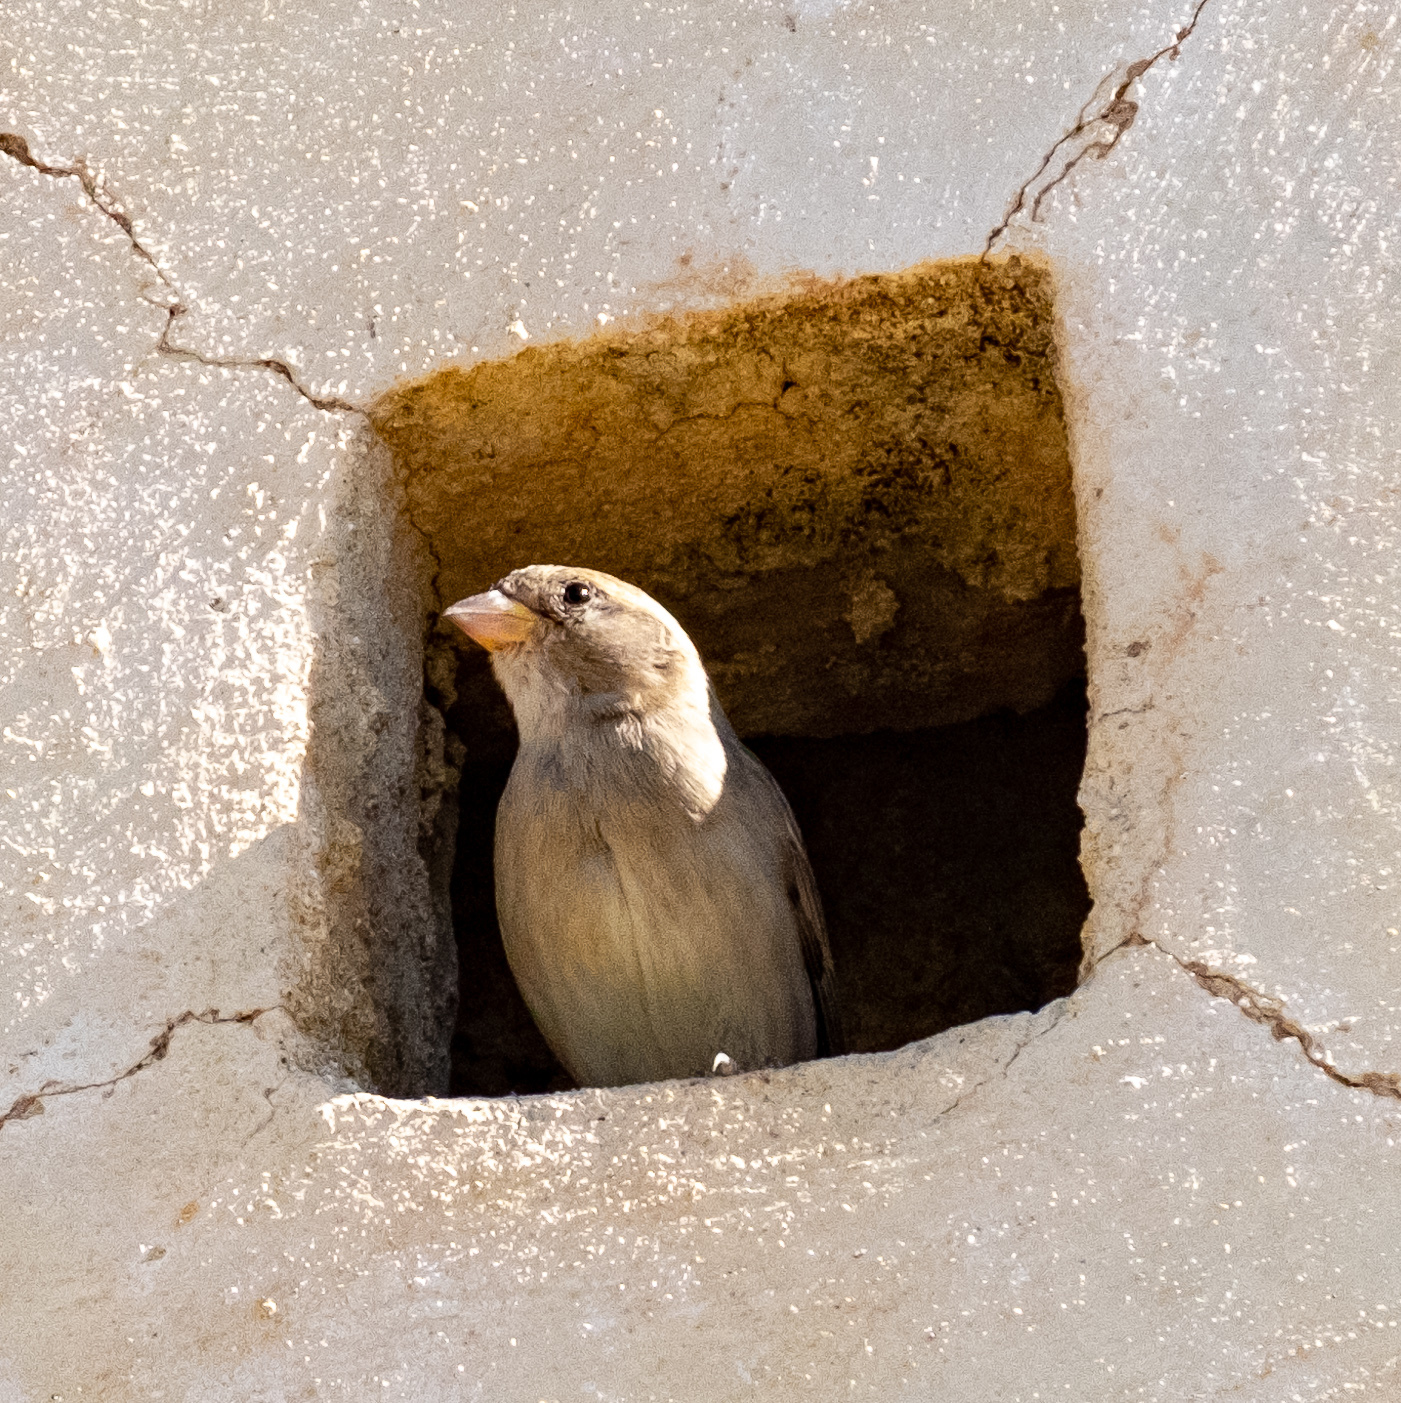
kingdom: Animalia
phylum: Chordata
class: Aves
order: Passeriformes
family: Passeridae
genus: Passer
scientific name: Passer domesticus
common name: House sparrow
